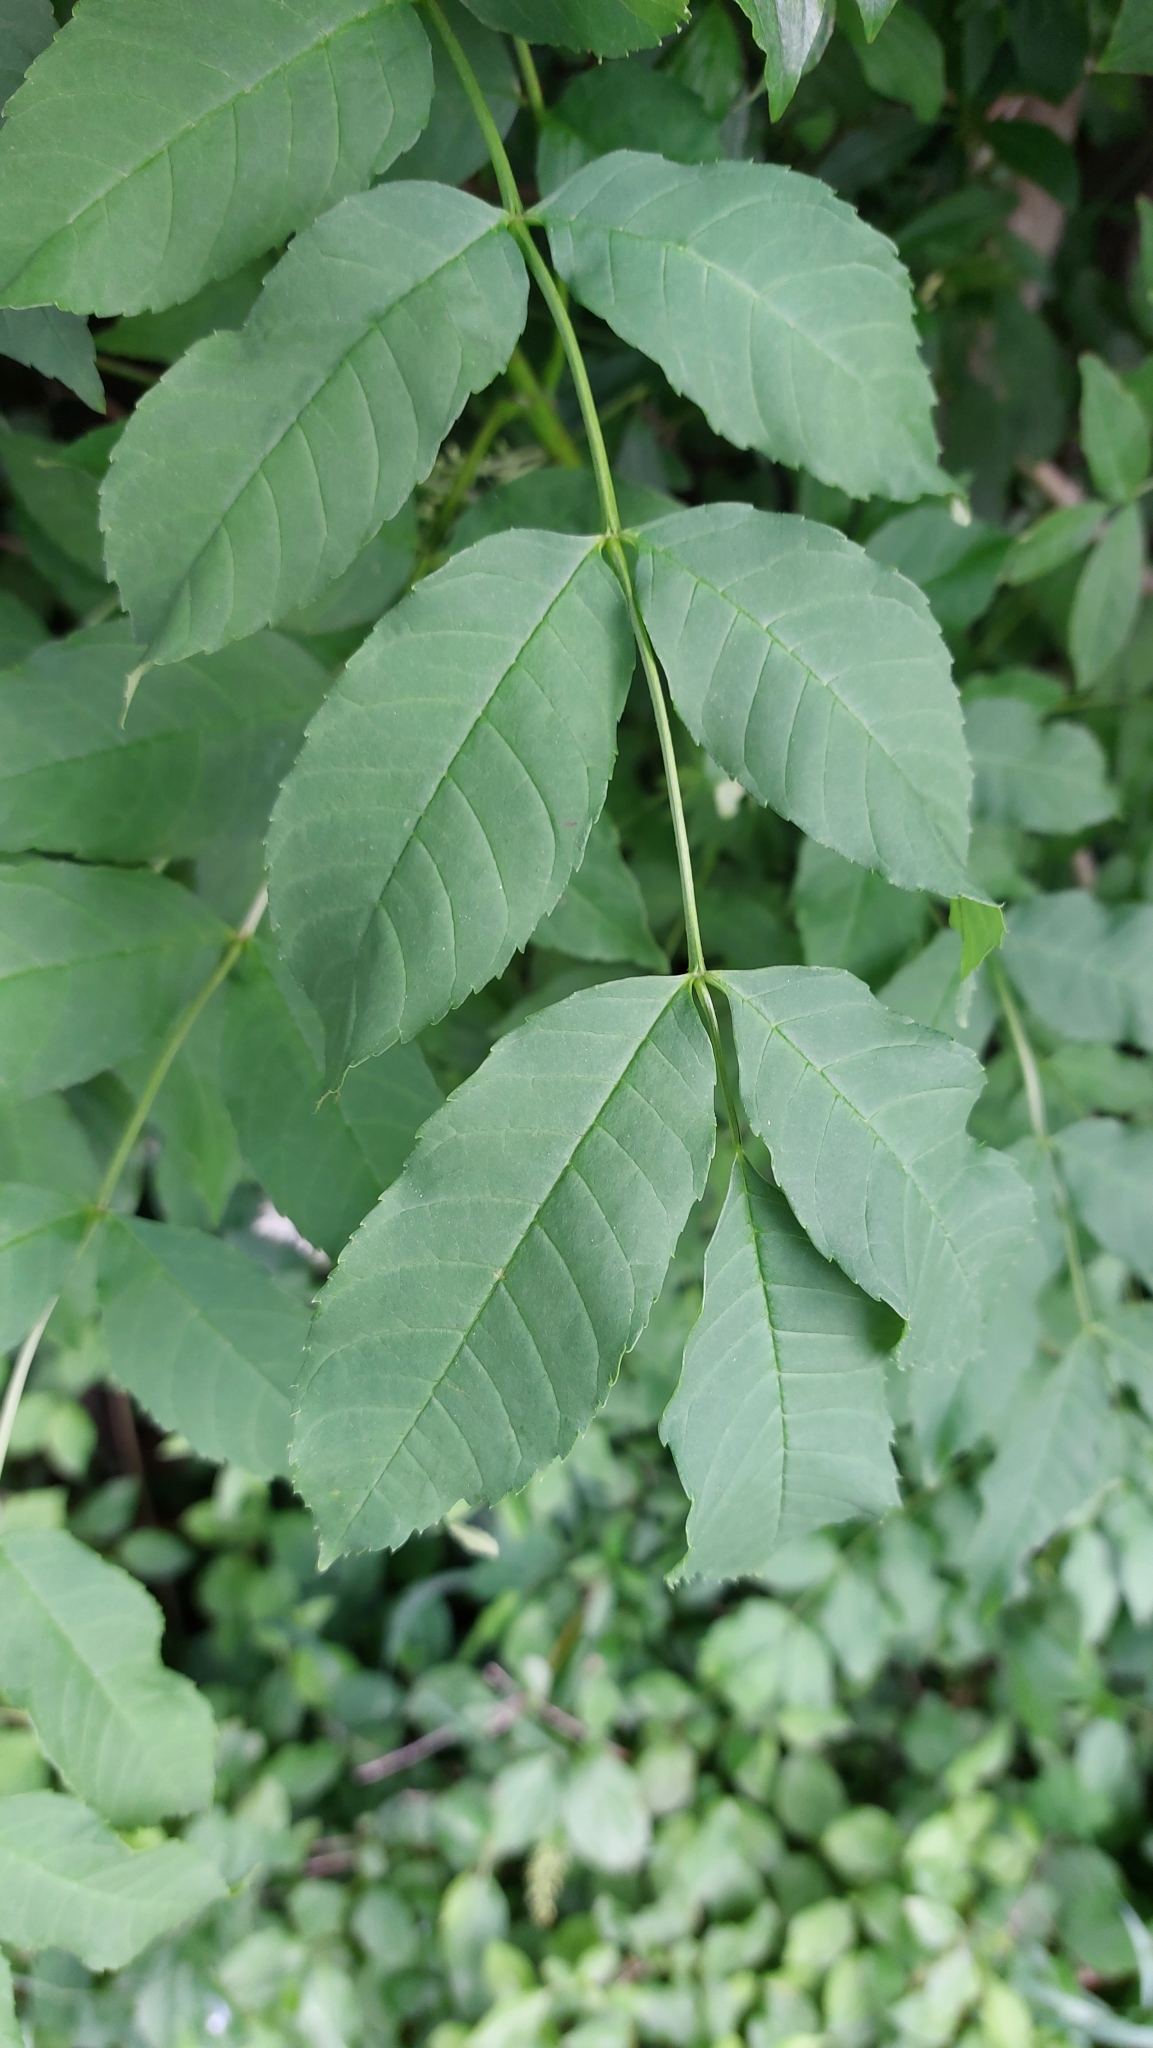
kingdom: Plantae
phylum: Tracheophyta
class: Magnoliopsida
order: Lamiales
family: Oleaceae
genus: Fraxinus
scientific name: Fraxinus excelsior
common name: European ash
